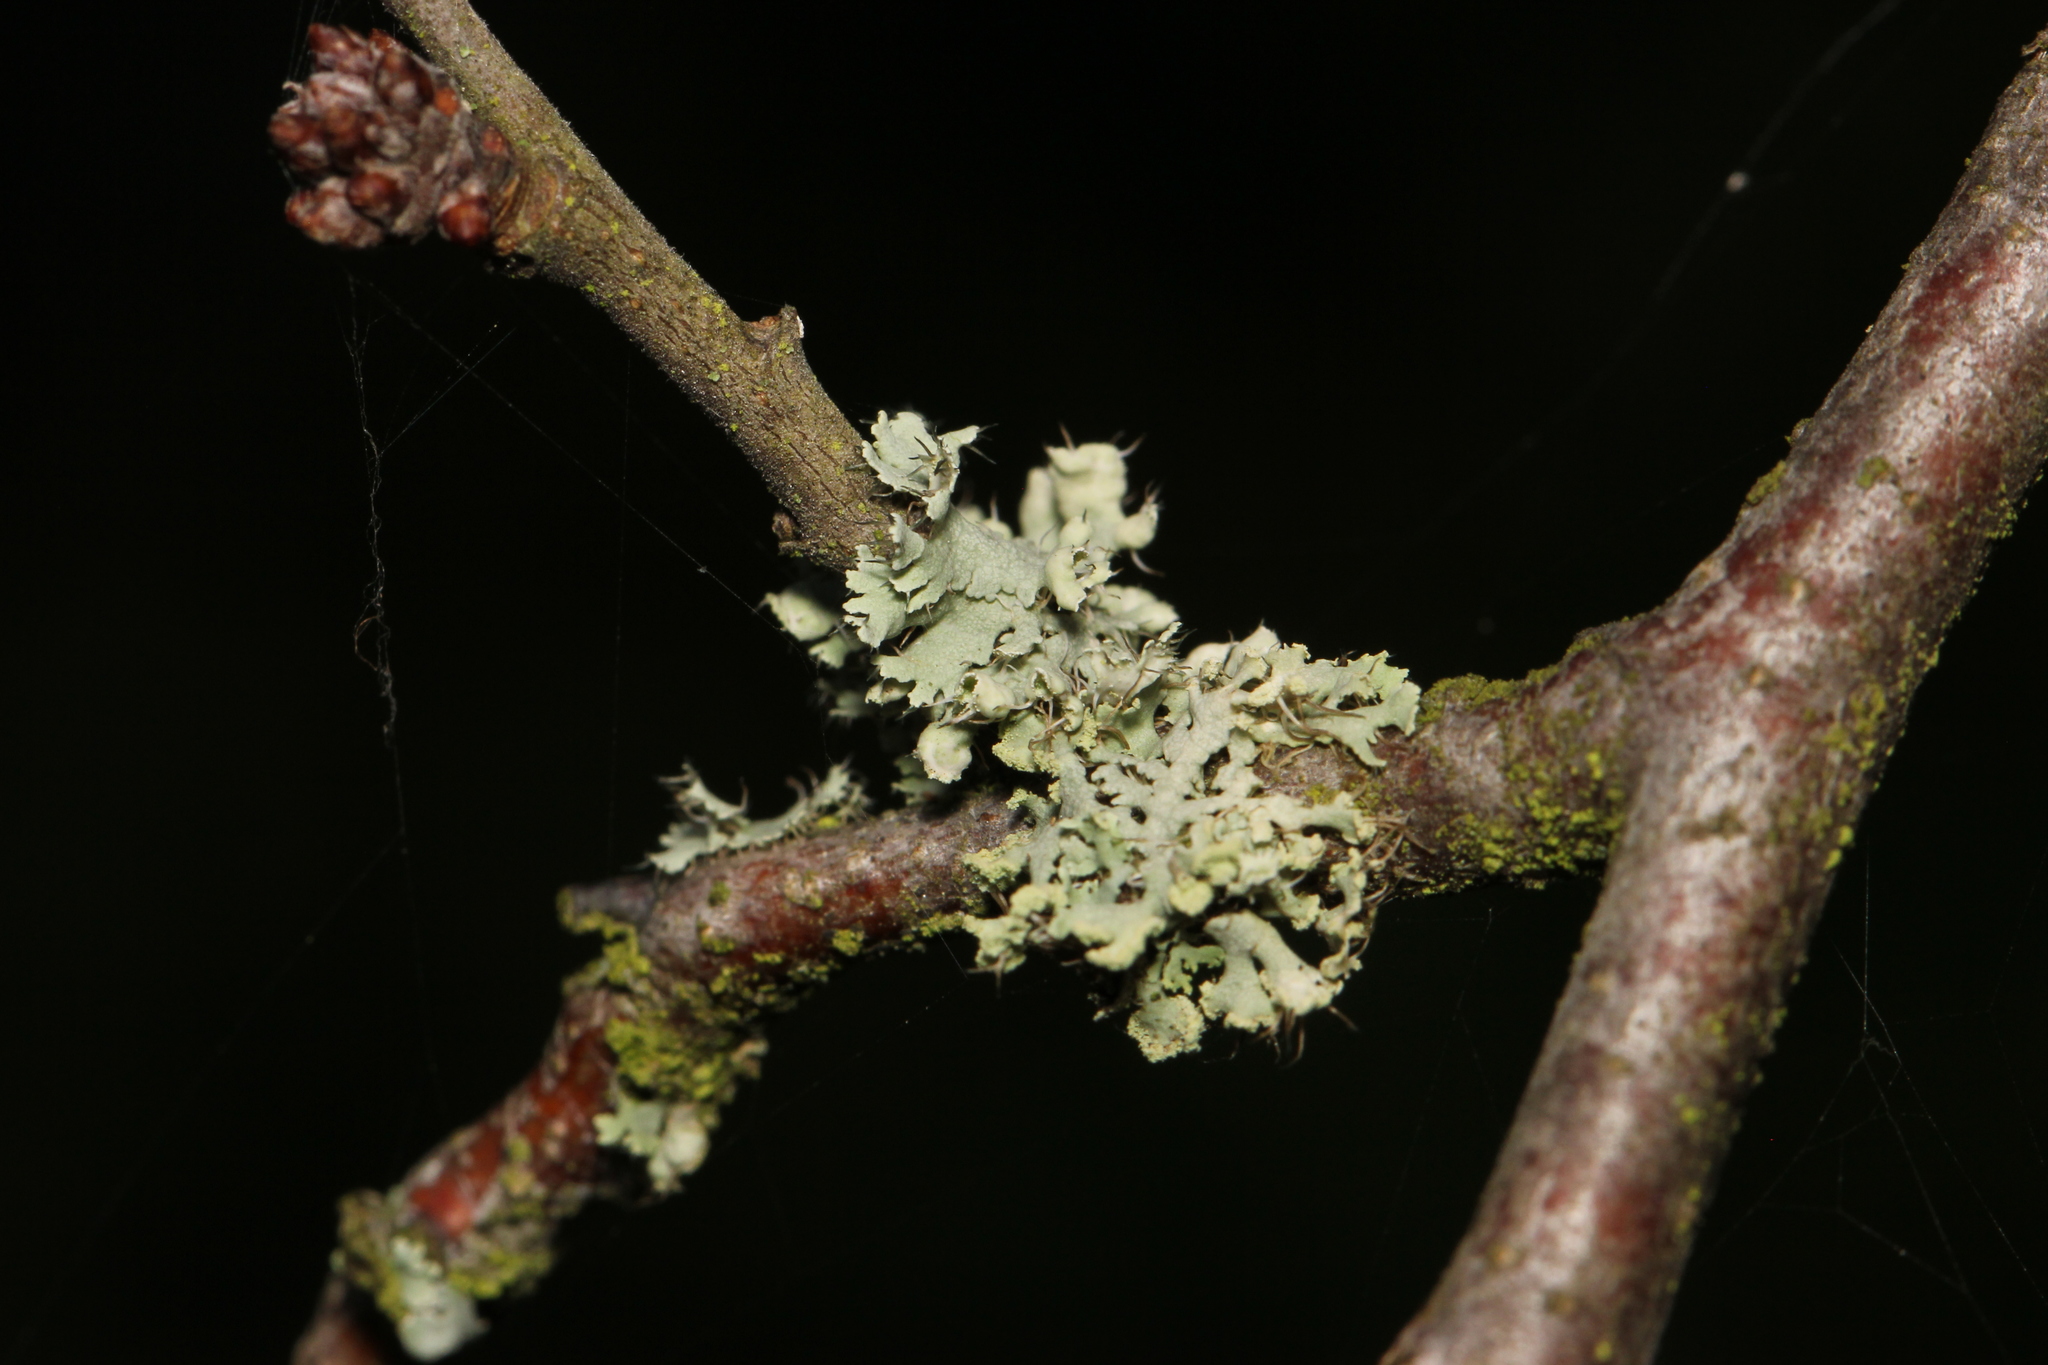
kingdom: Fungi
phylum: Ascomycota
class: Lecanoromycetes
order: Caliciales
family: Physciaceae
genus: Physcia
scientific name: Physcia adscendens
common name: Hooded rosette lichen
